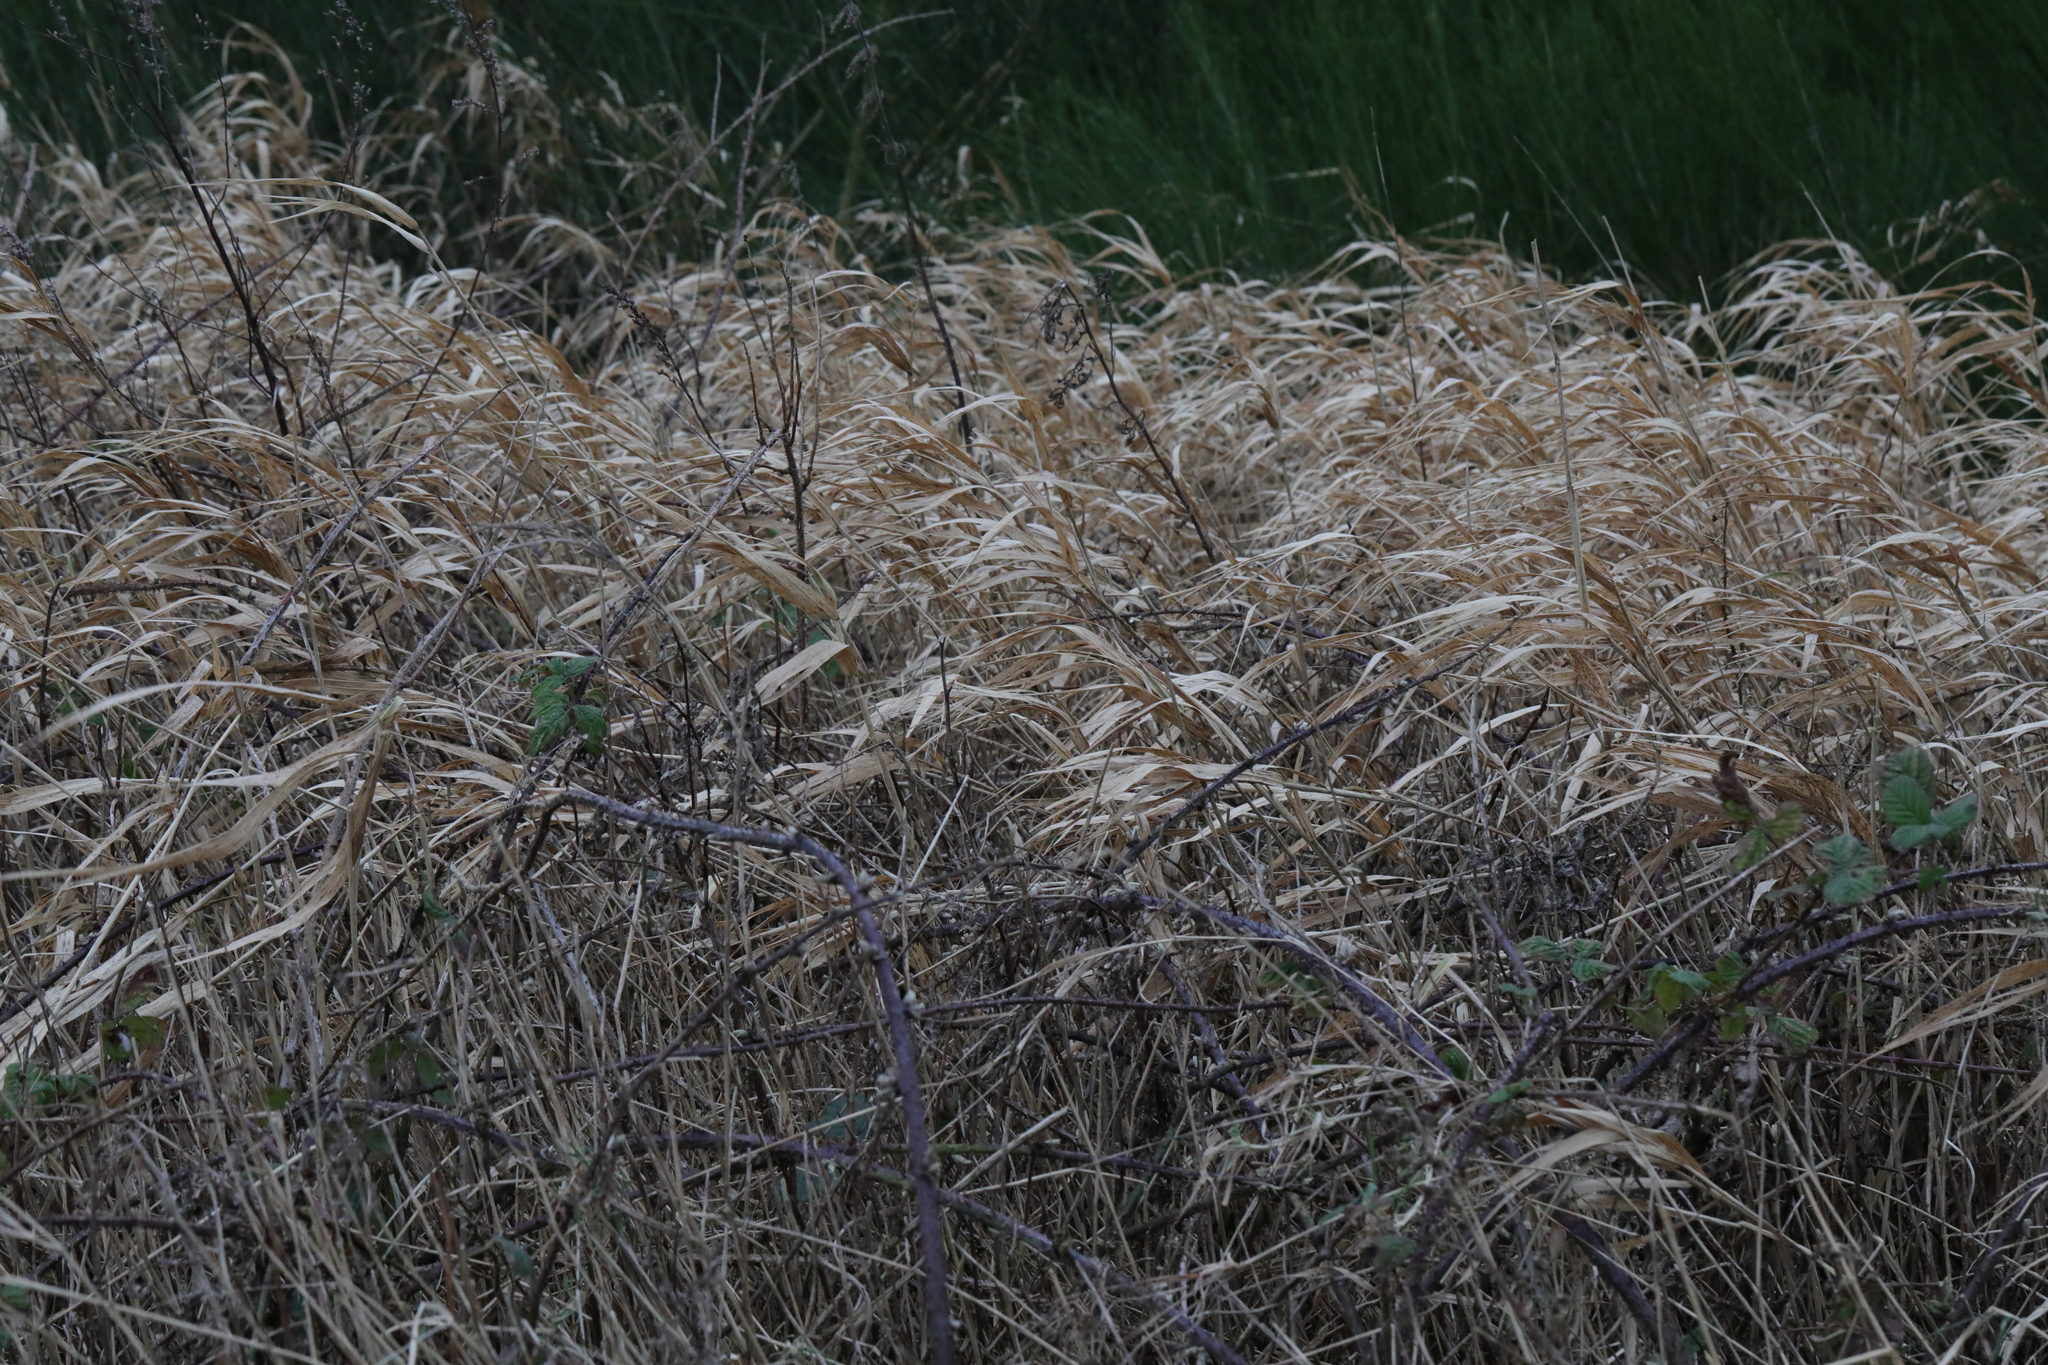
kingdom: Plantae
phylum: Tracheophyta
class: Liliopsida
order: Poales
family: Poaceae
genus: Phalaris
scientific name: Phalaris arundinacea
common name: Reed canary-grass
